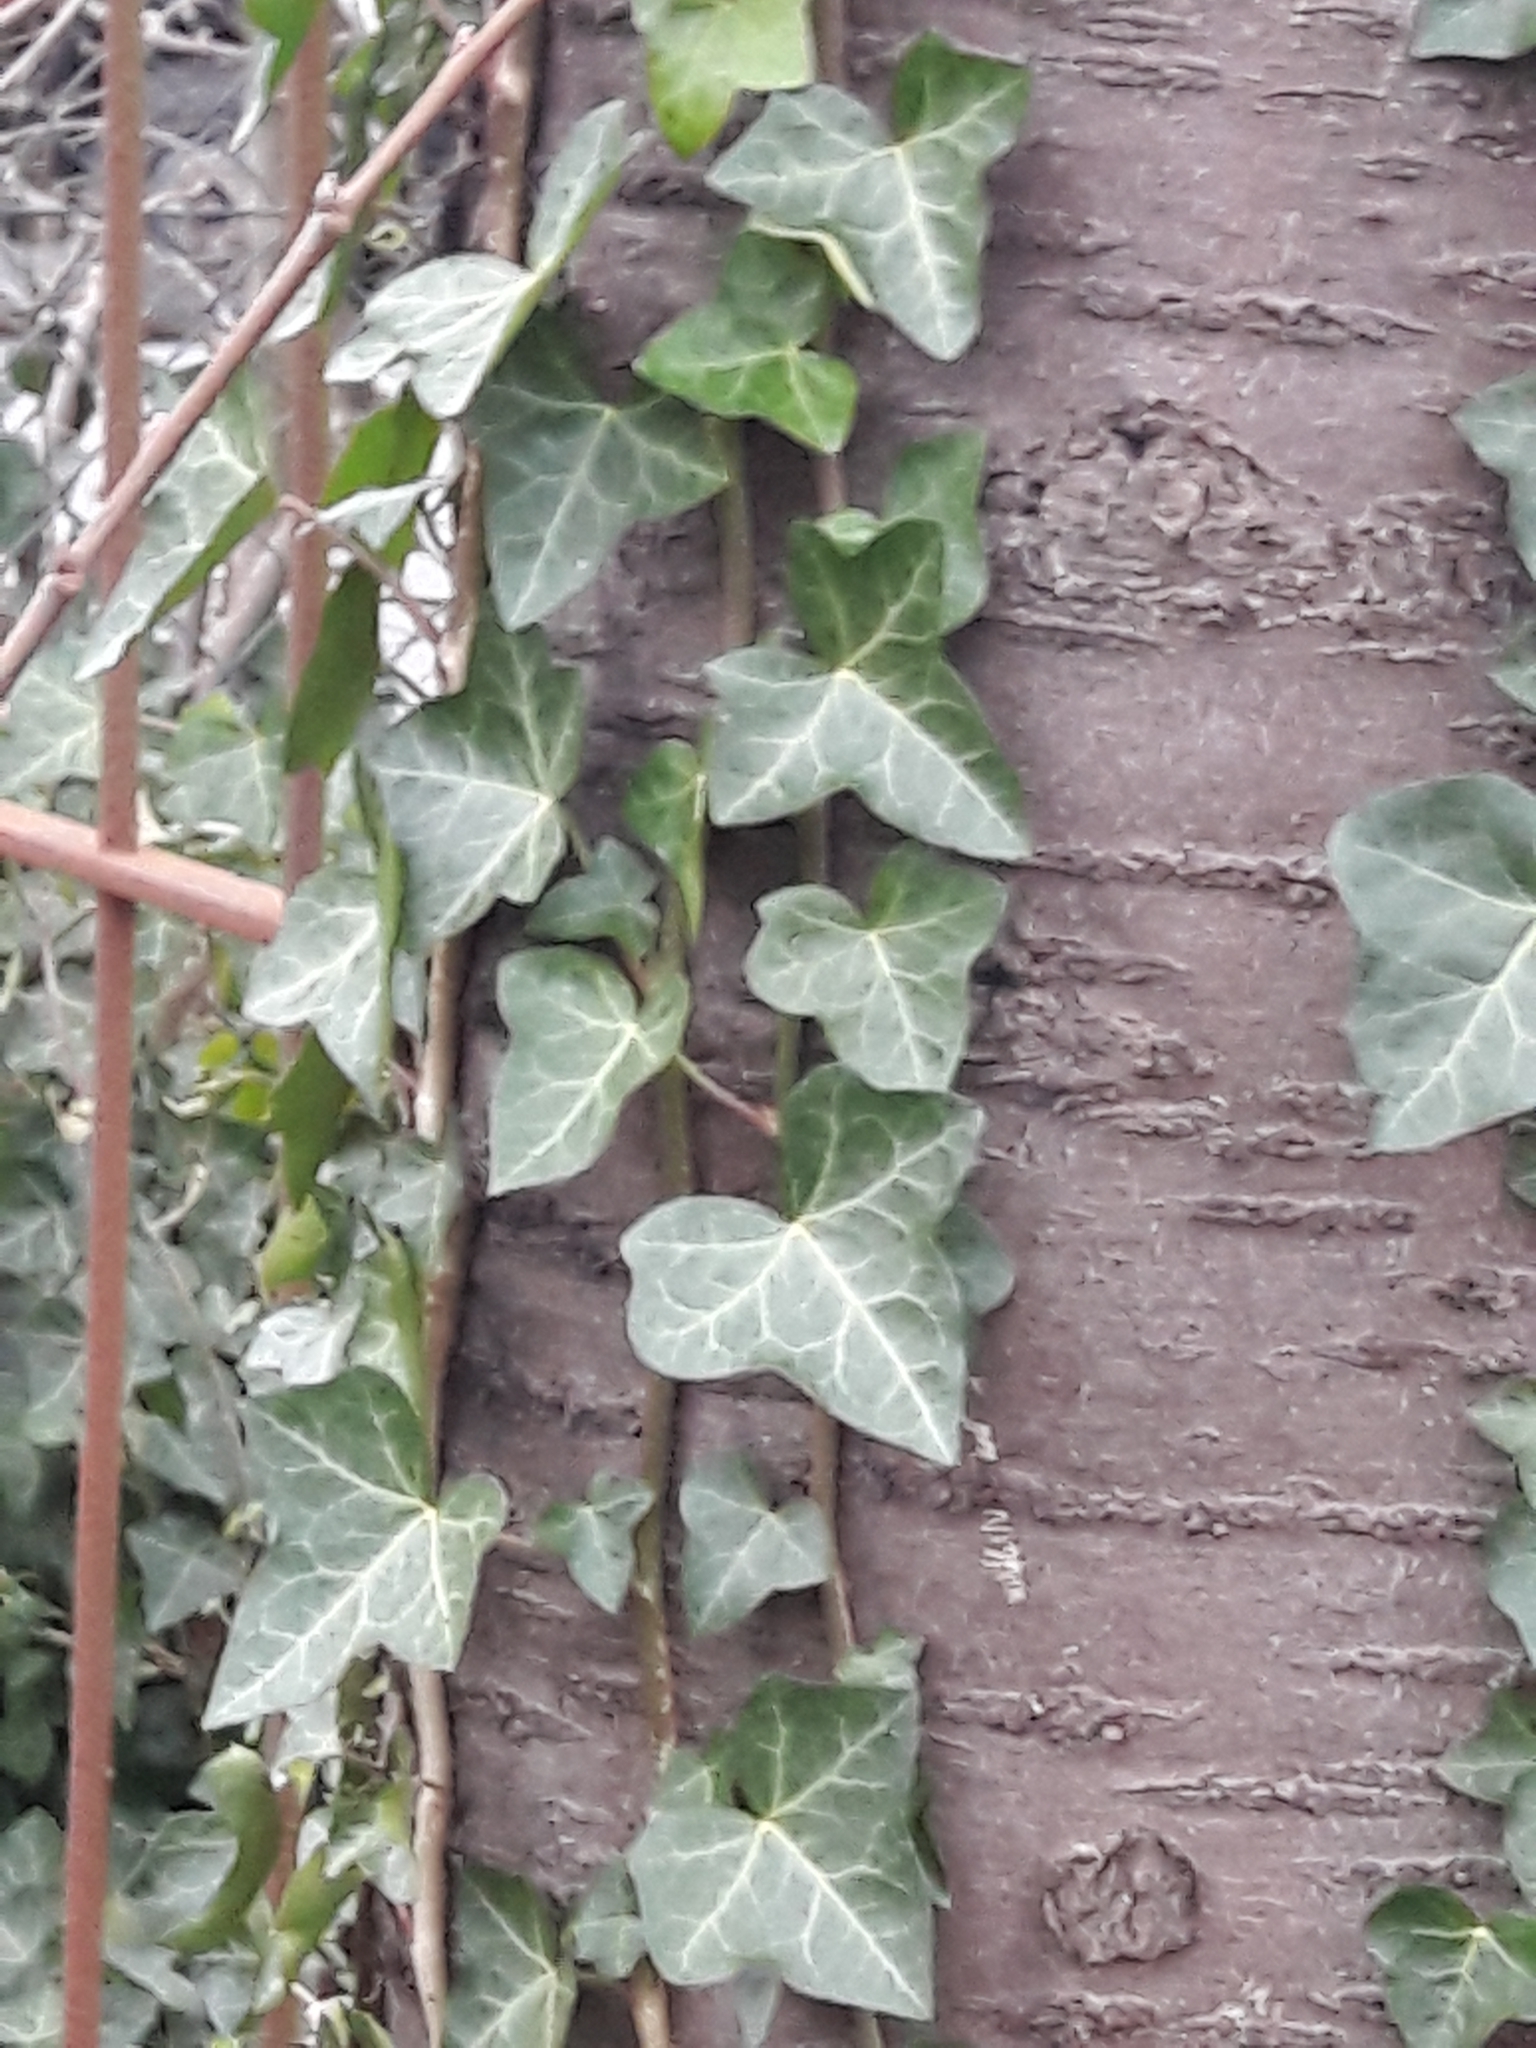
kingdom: Plantae
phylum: Tracheophyta
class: Magnoliopsida
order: Apiales
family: Araliaceae
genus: Hedera
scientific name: Hedera helix
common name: Ivy
